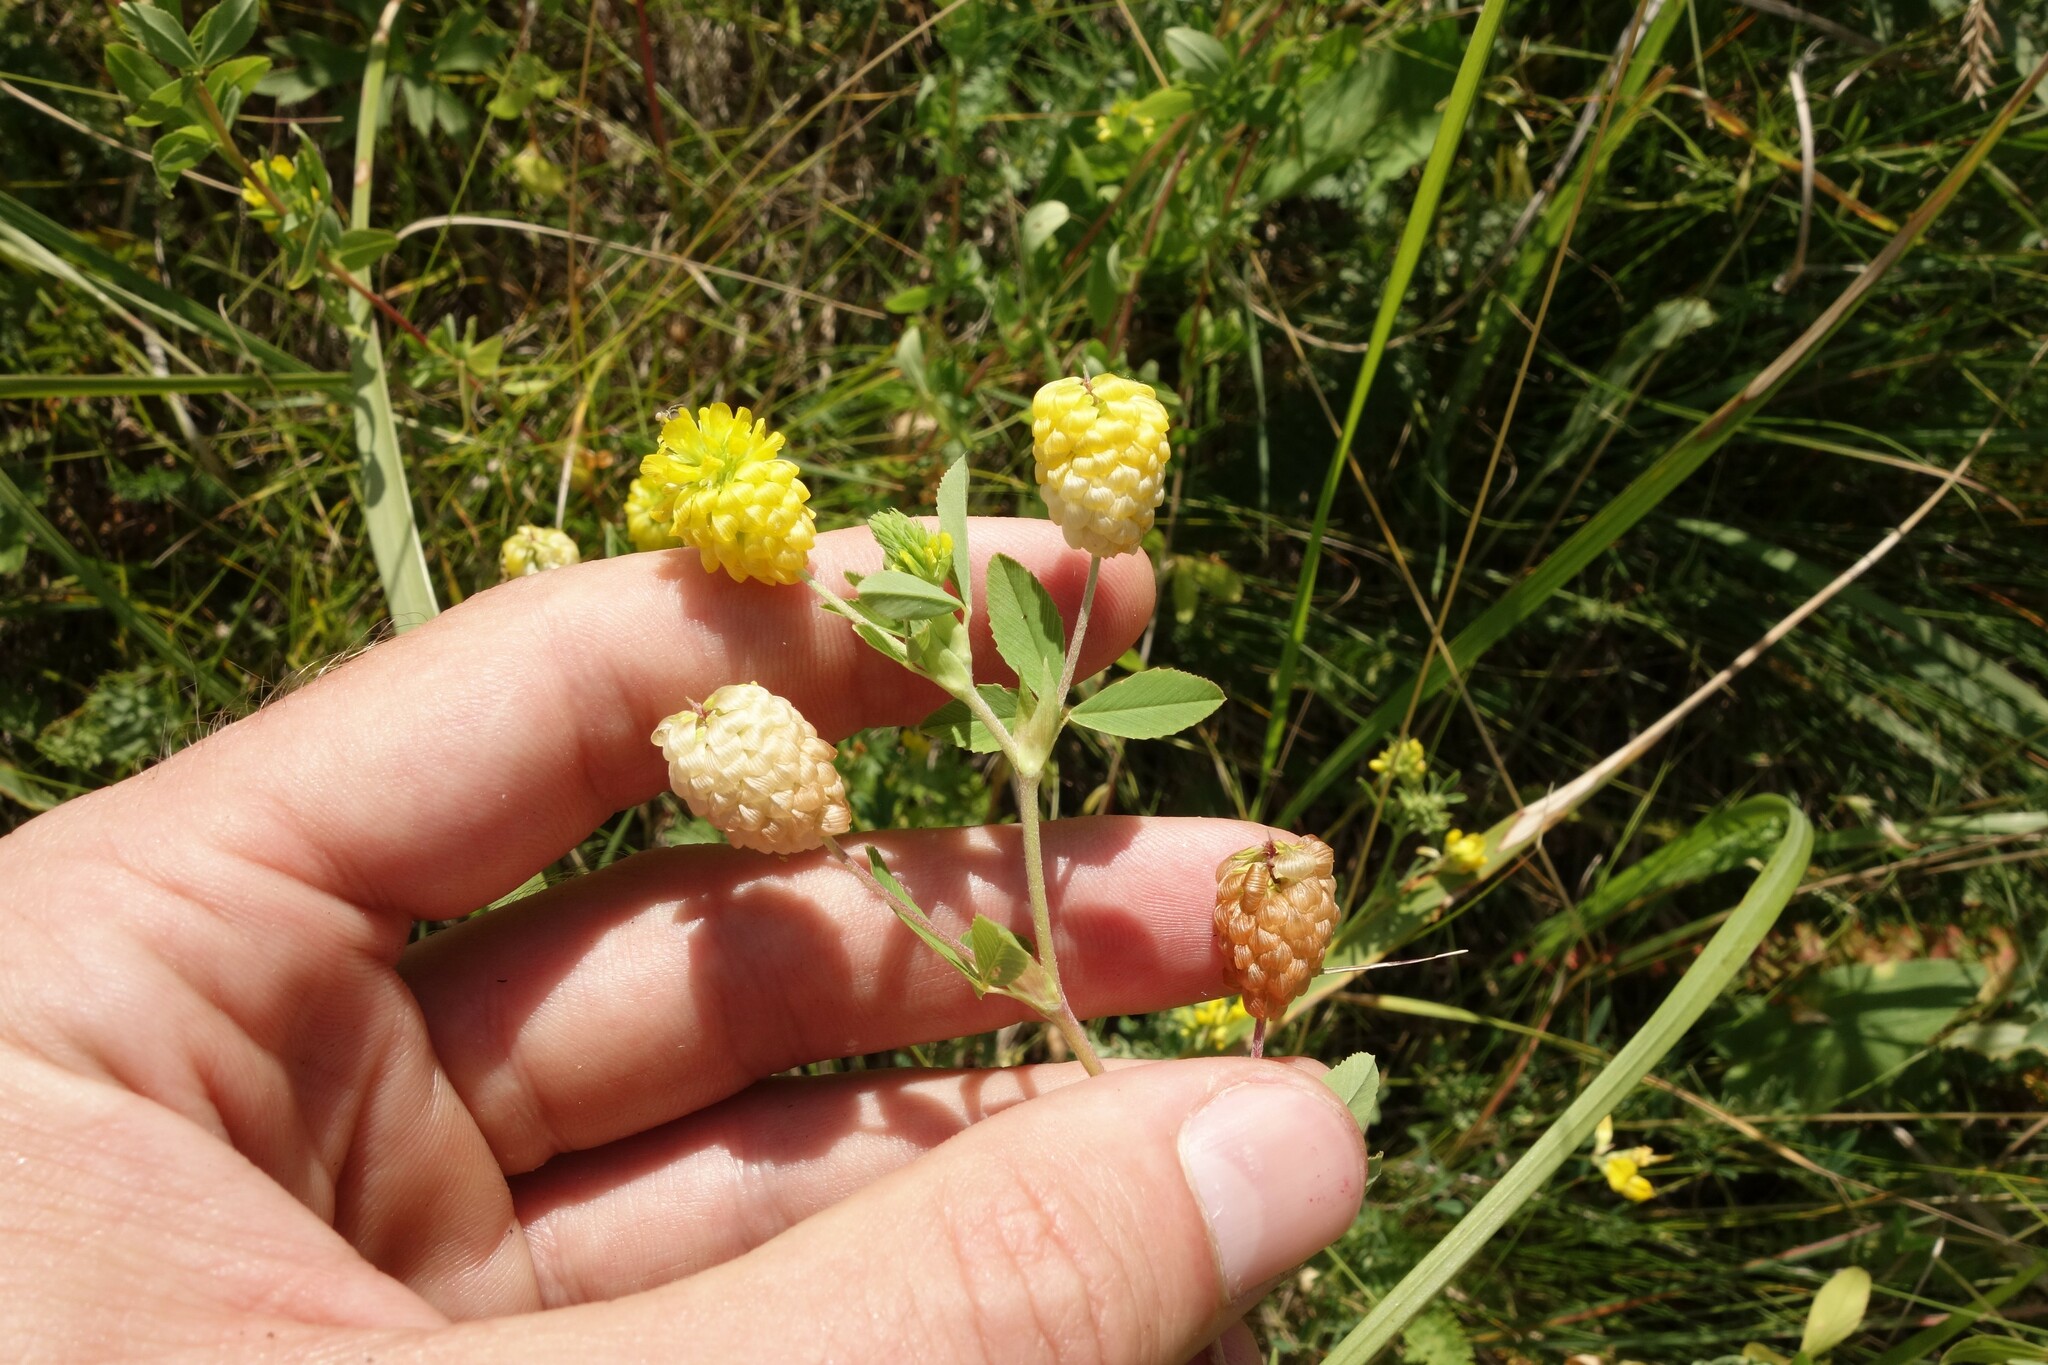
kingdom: Plantae
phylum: Tracheophyta
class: Magnoliopsida
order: Fabales
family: Fabaceae
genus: Trifolium
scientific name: Trifolium aureum
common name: Golden clover
